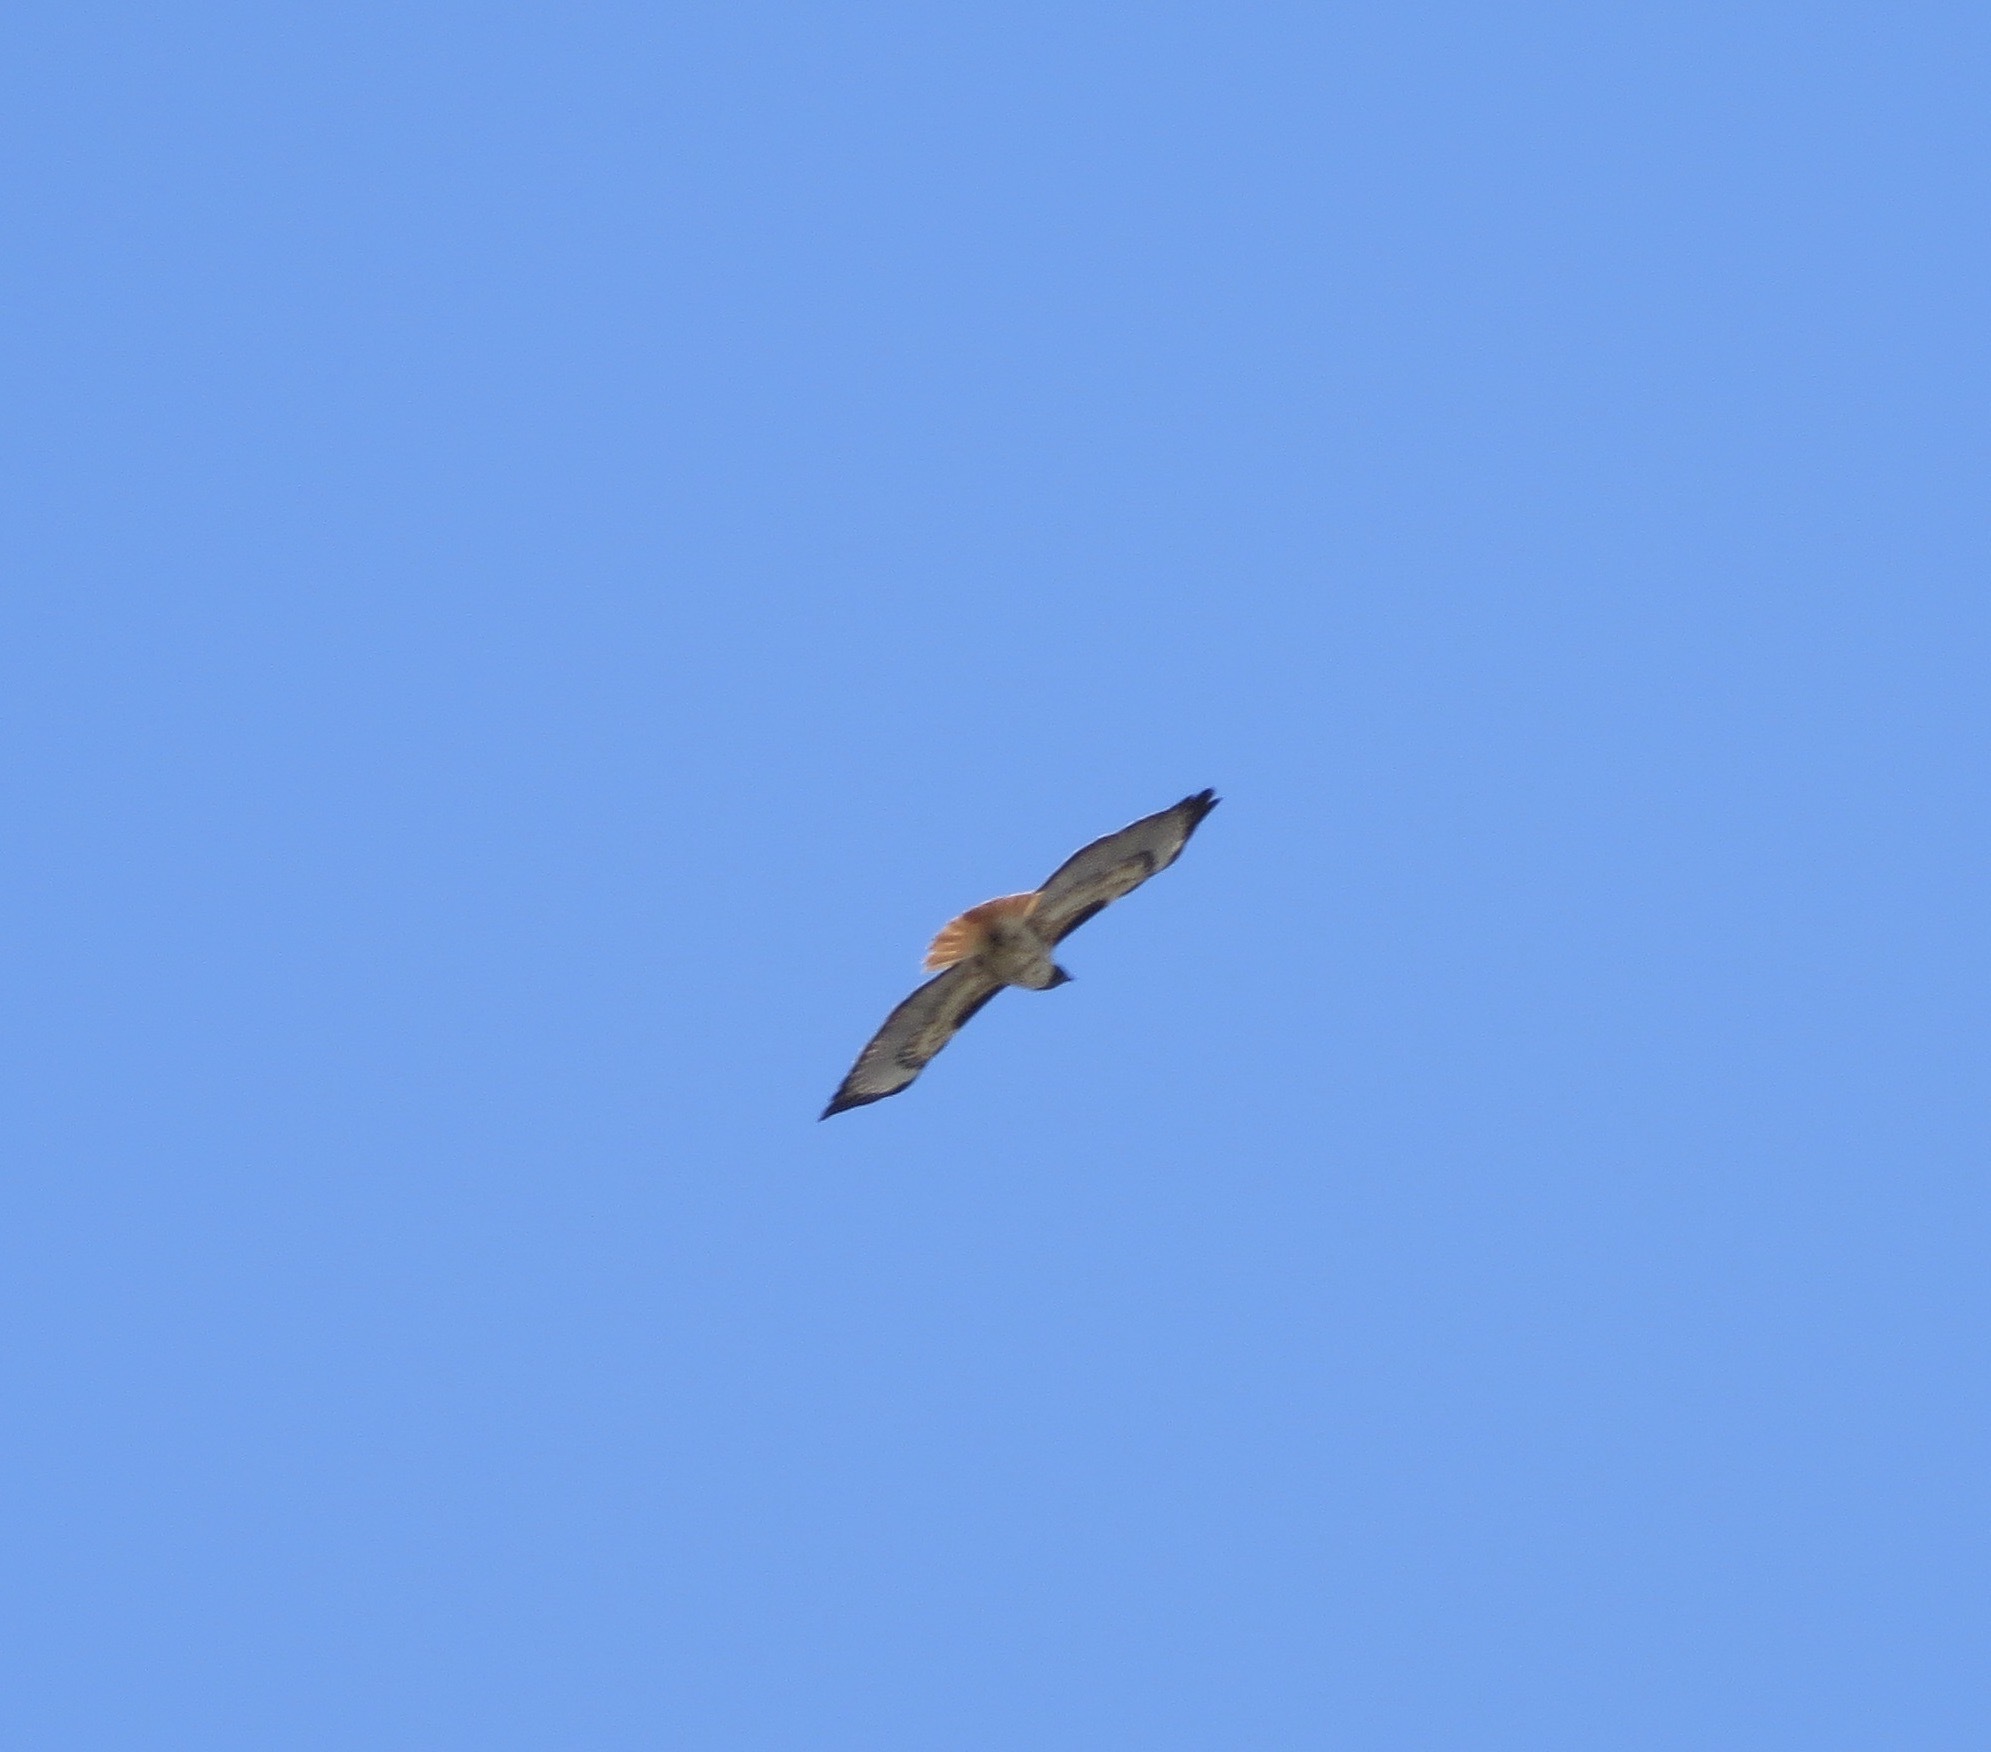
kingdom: Animalia
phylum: Chordata
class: Aves
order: Accipitriformes
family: Accipitridae
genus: Buteo
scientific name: Buteo jamaicensis
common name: Red-tailed hawk
